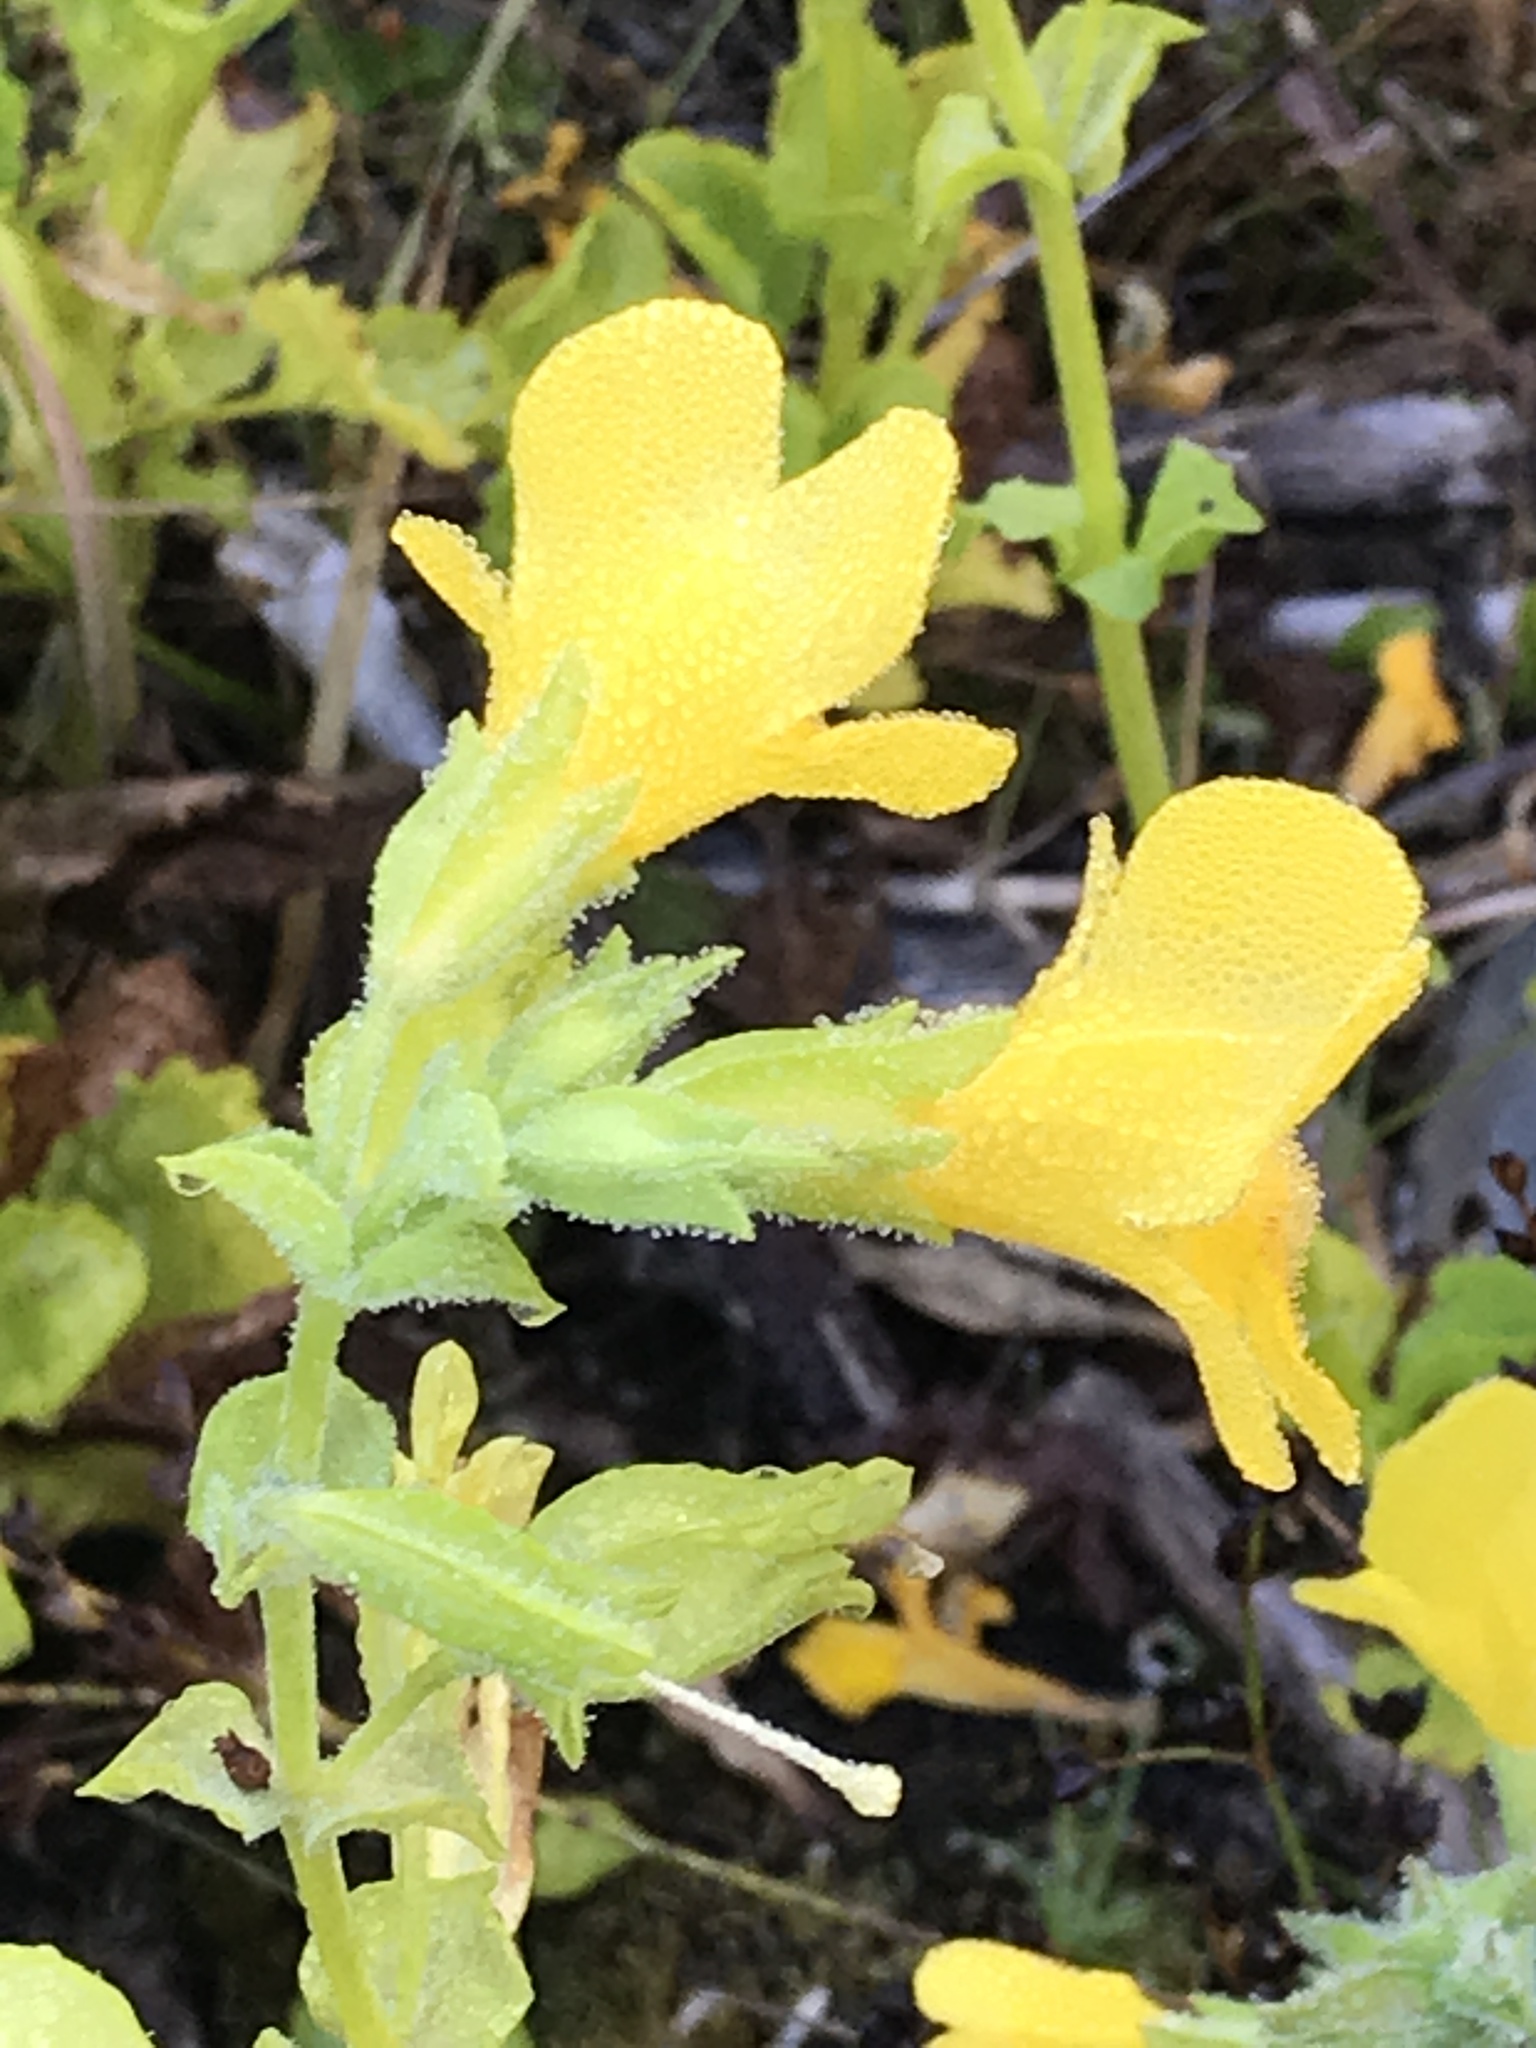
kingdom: Plantae
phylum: Tracheophyta
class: Magnoliopsida
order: Lamiales
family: Phrymaceae
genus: Erythranthe
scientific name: Erythranthe guttata
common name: Monkeyflower
